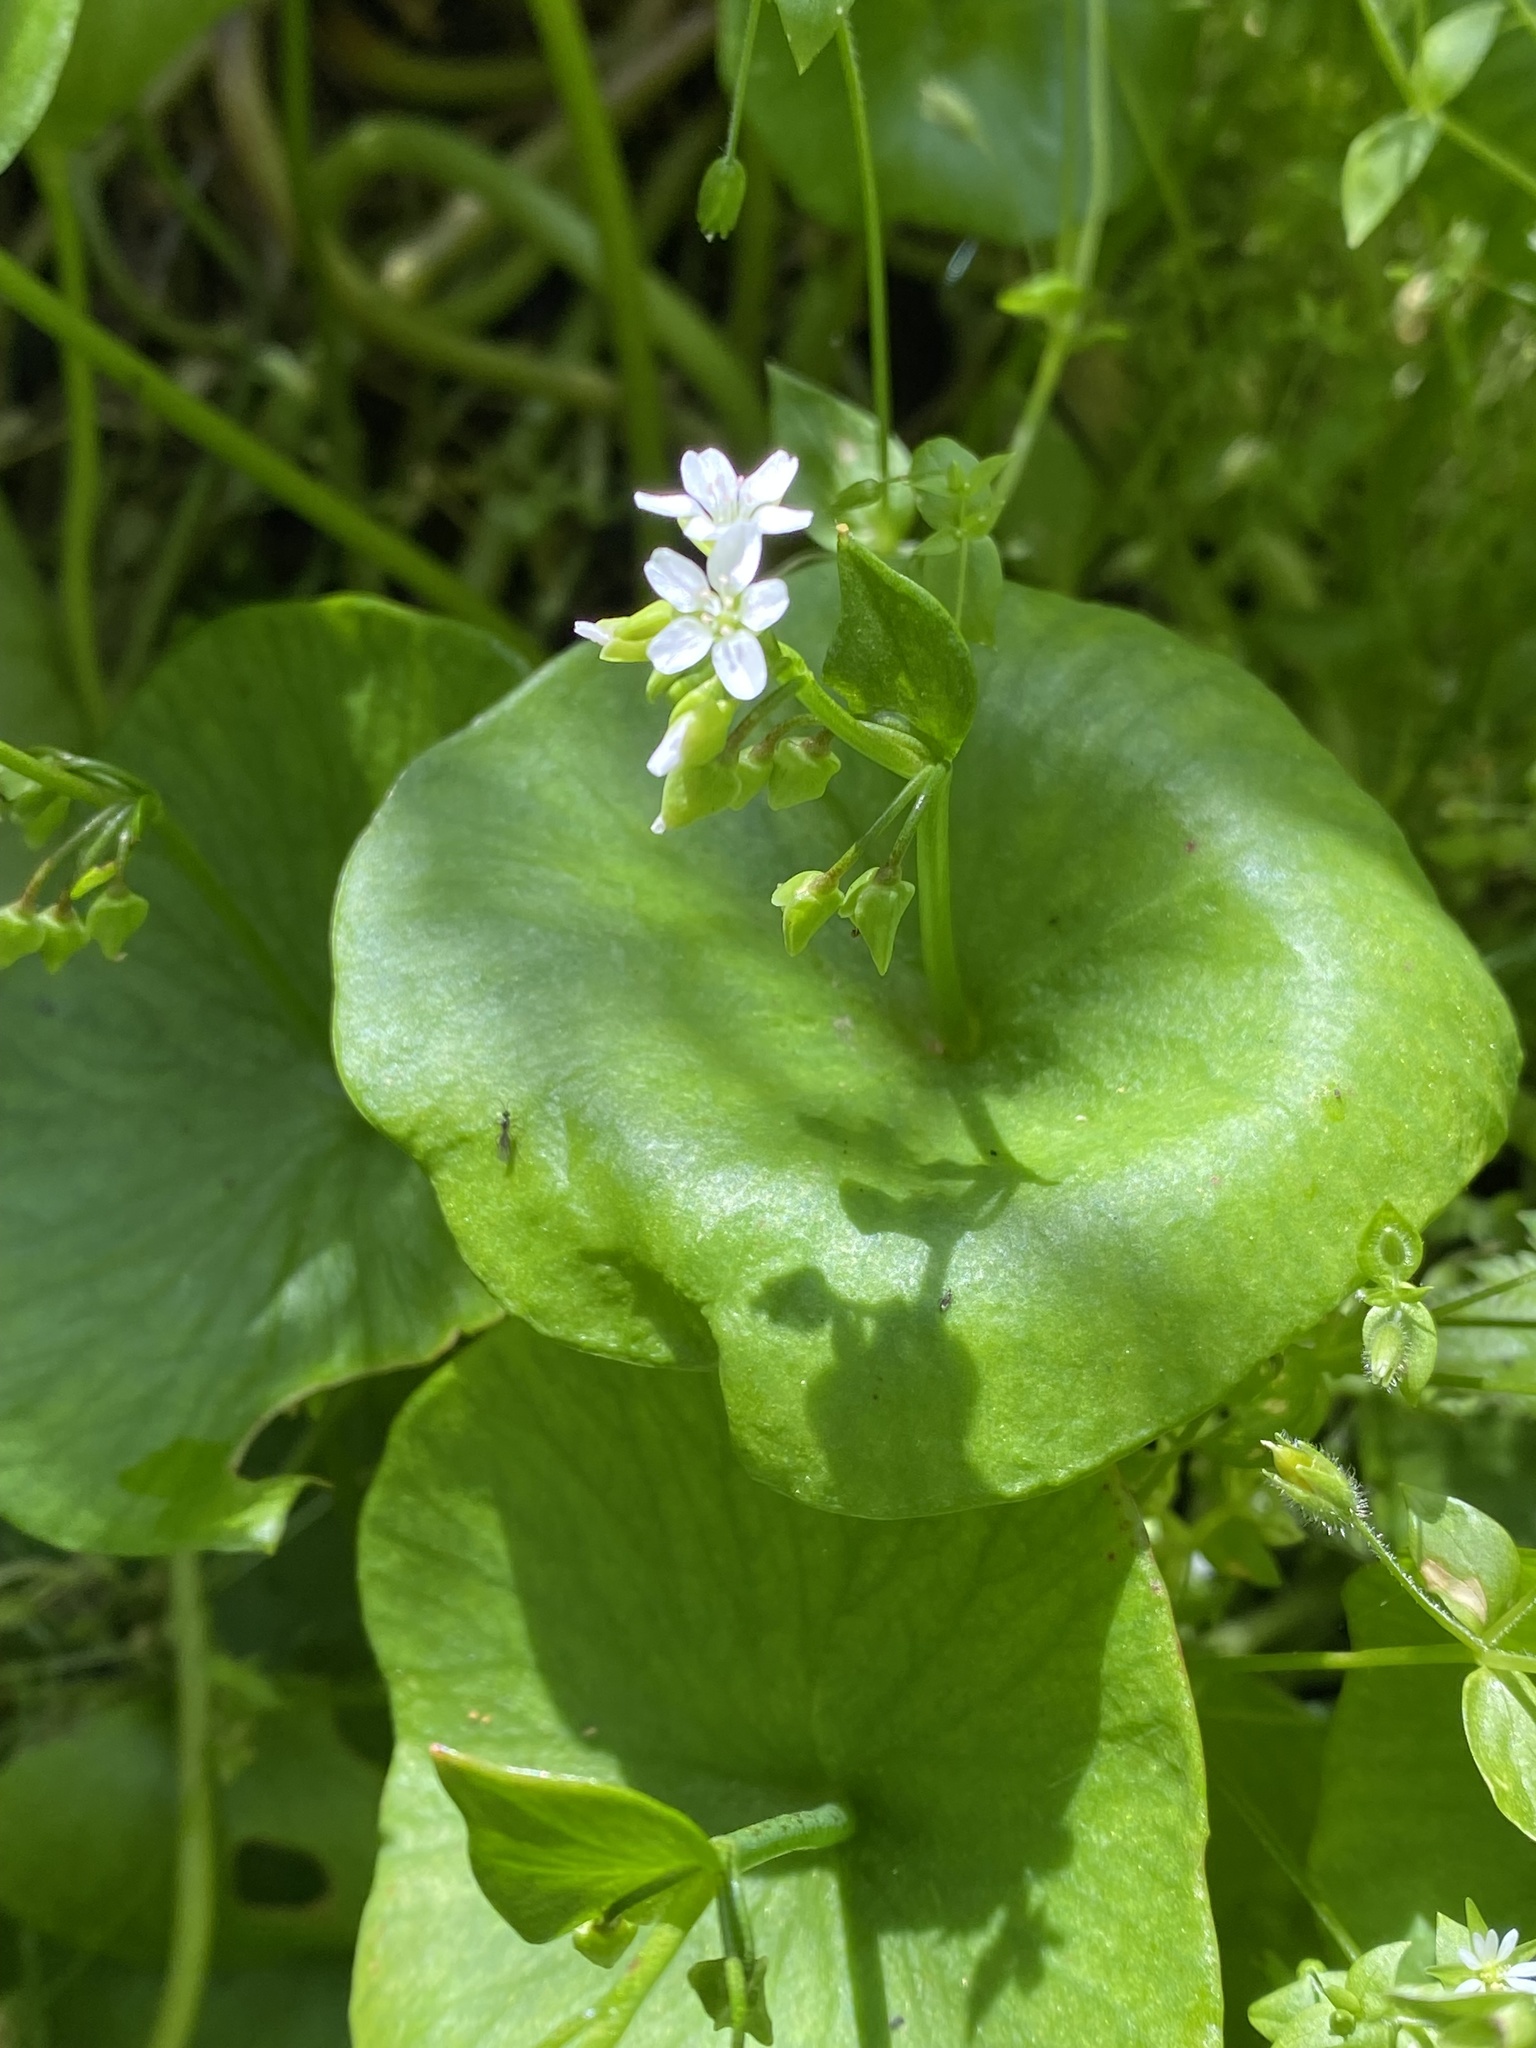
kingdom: Plantae
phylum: Tracheophyta
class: Magnoliopsida
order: Caryophyllales
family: Montiaceae
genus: Claytonia
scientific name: Claytonia perfoliata
